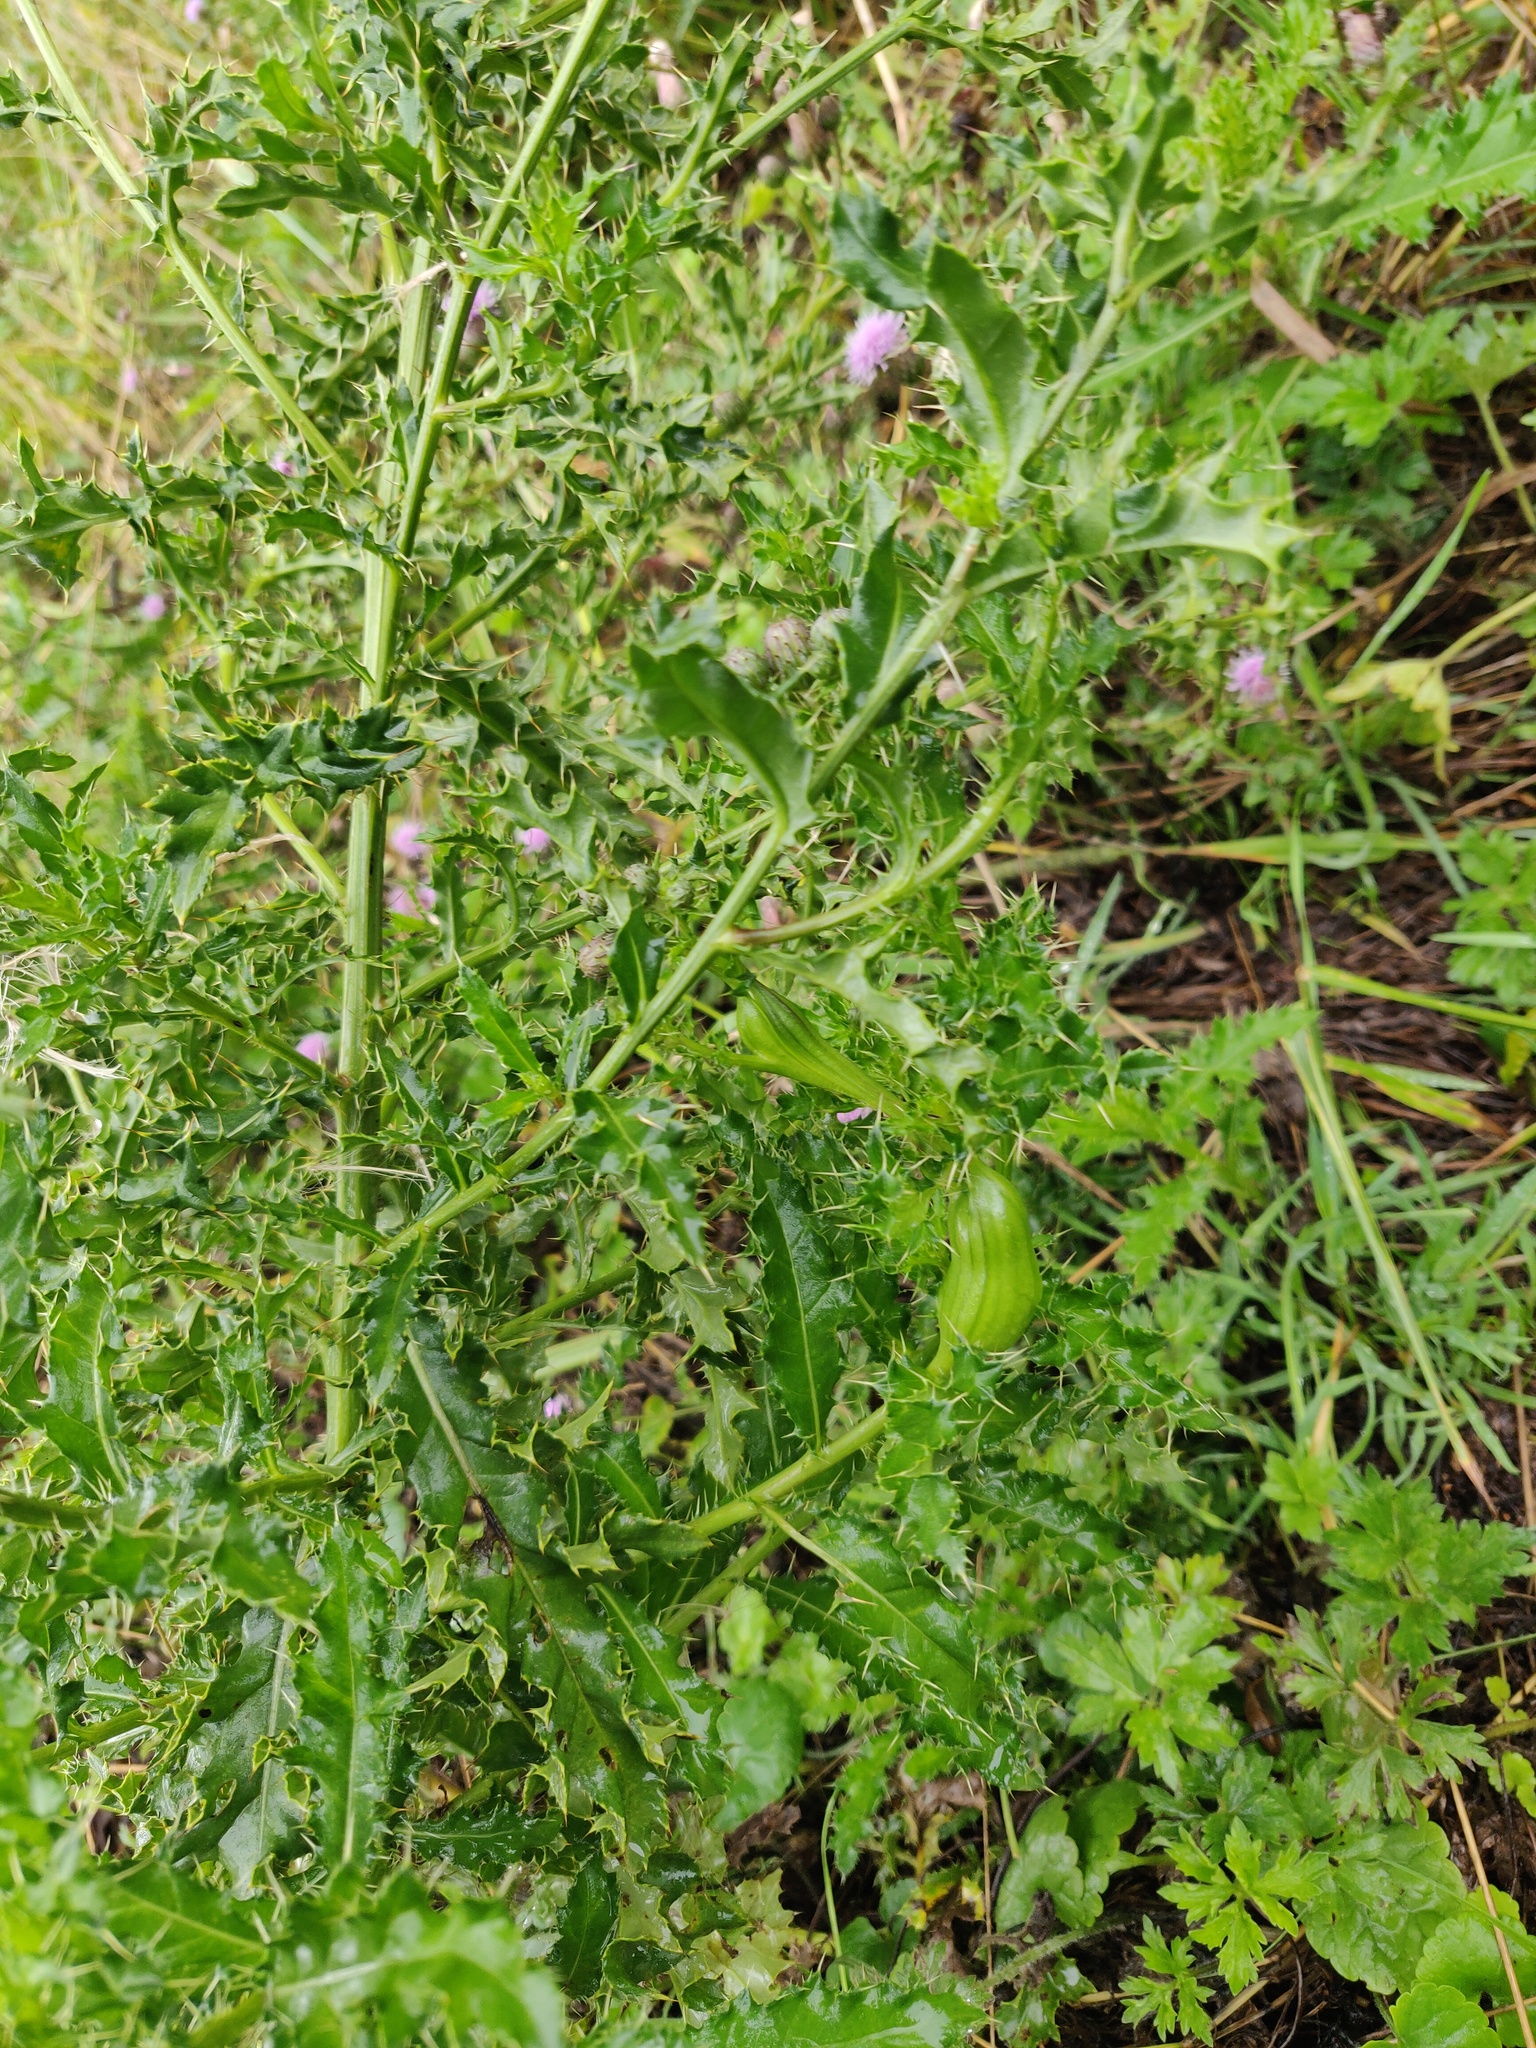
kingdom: Animalia
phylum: Arthropoda
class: Insecta
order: Diptera
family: Tephritidae
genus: Urophora
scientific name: Urophora cardui
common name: Fruit fly
